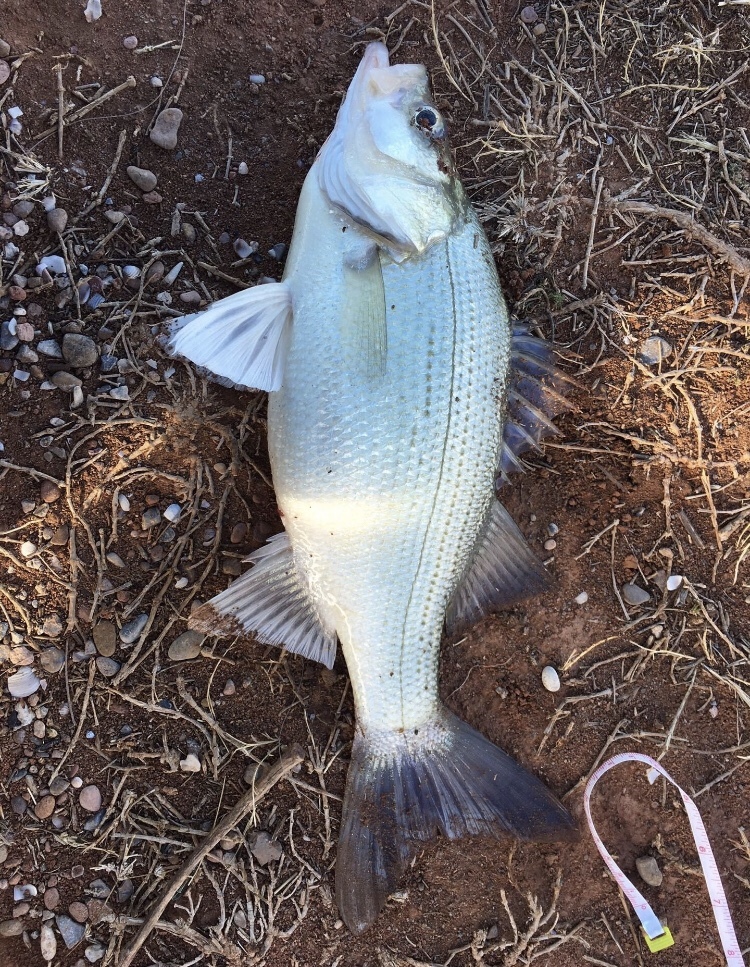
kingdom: Animalia
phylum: Chordata
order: Perciformes
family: Moronidae
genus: Morone
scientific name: Morone chrysops
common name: White bass
